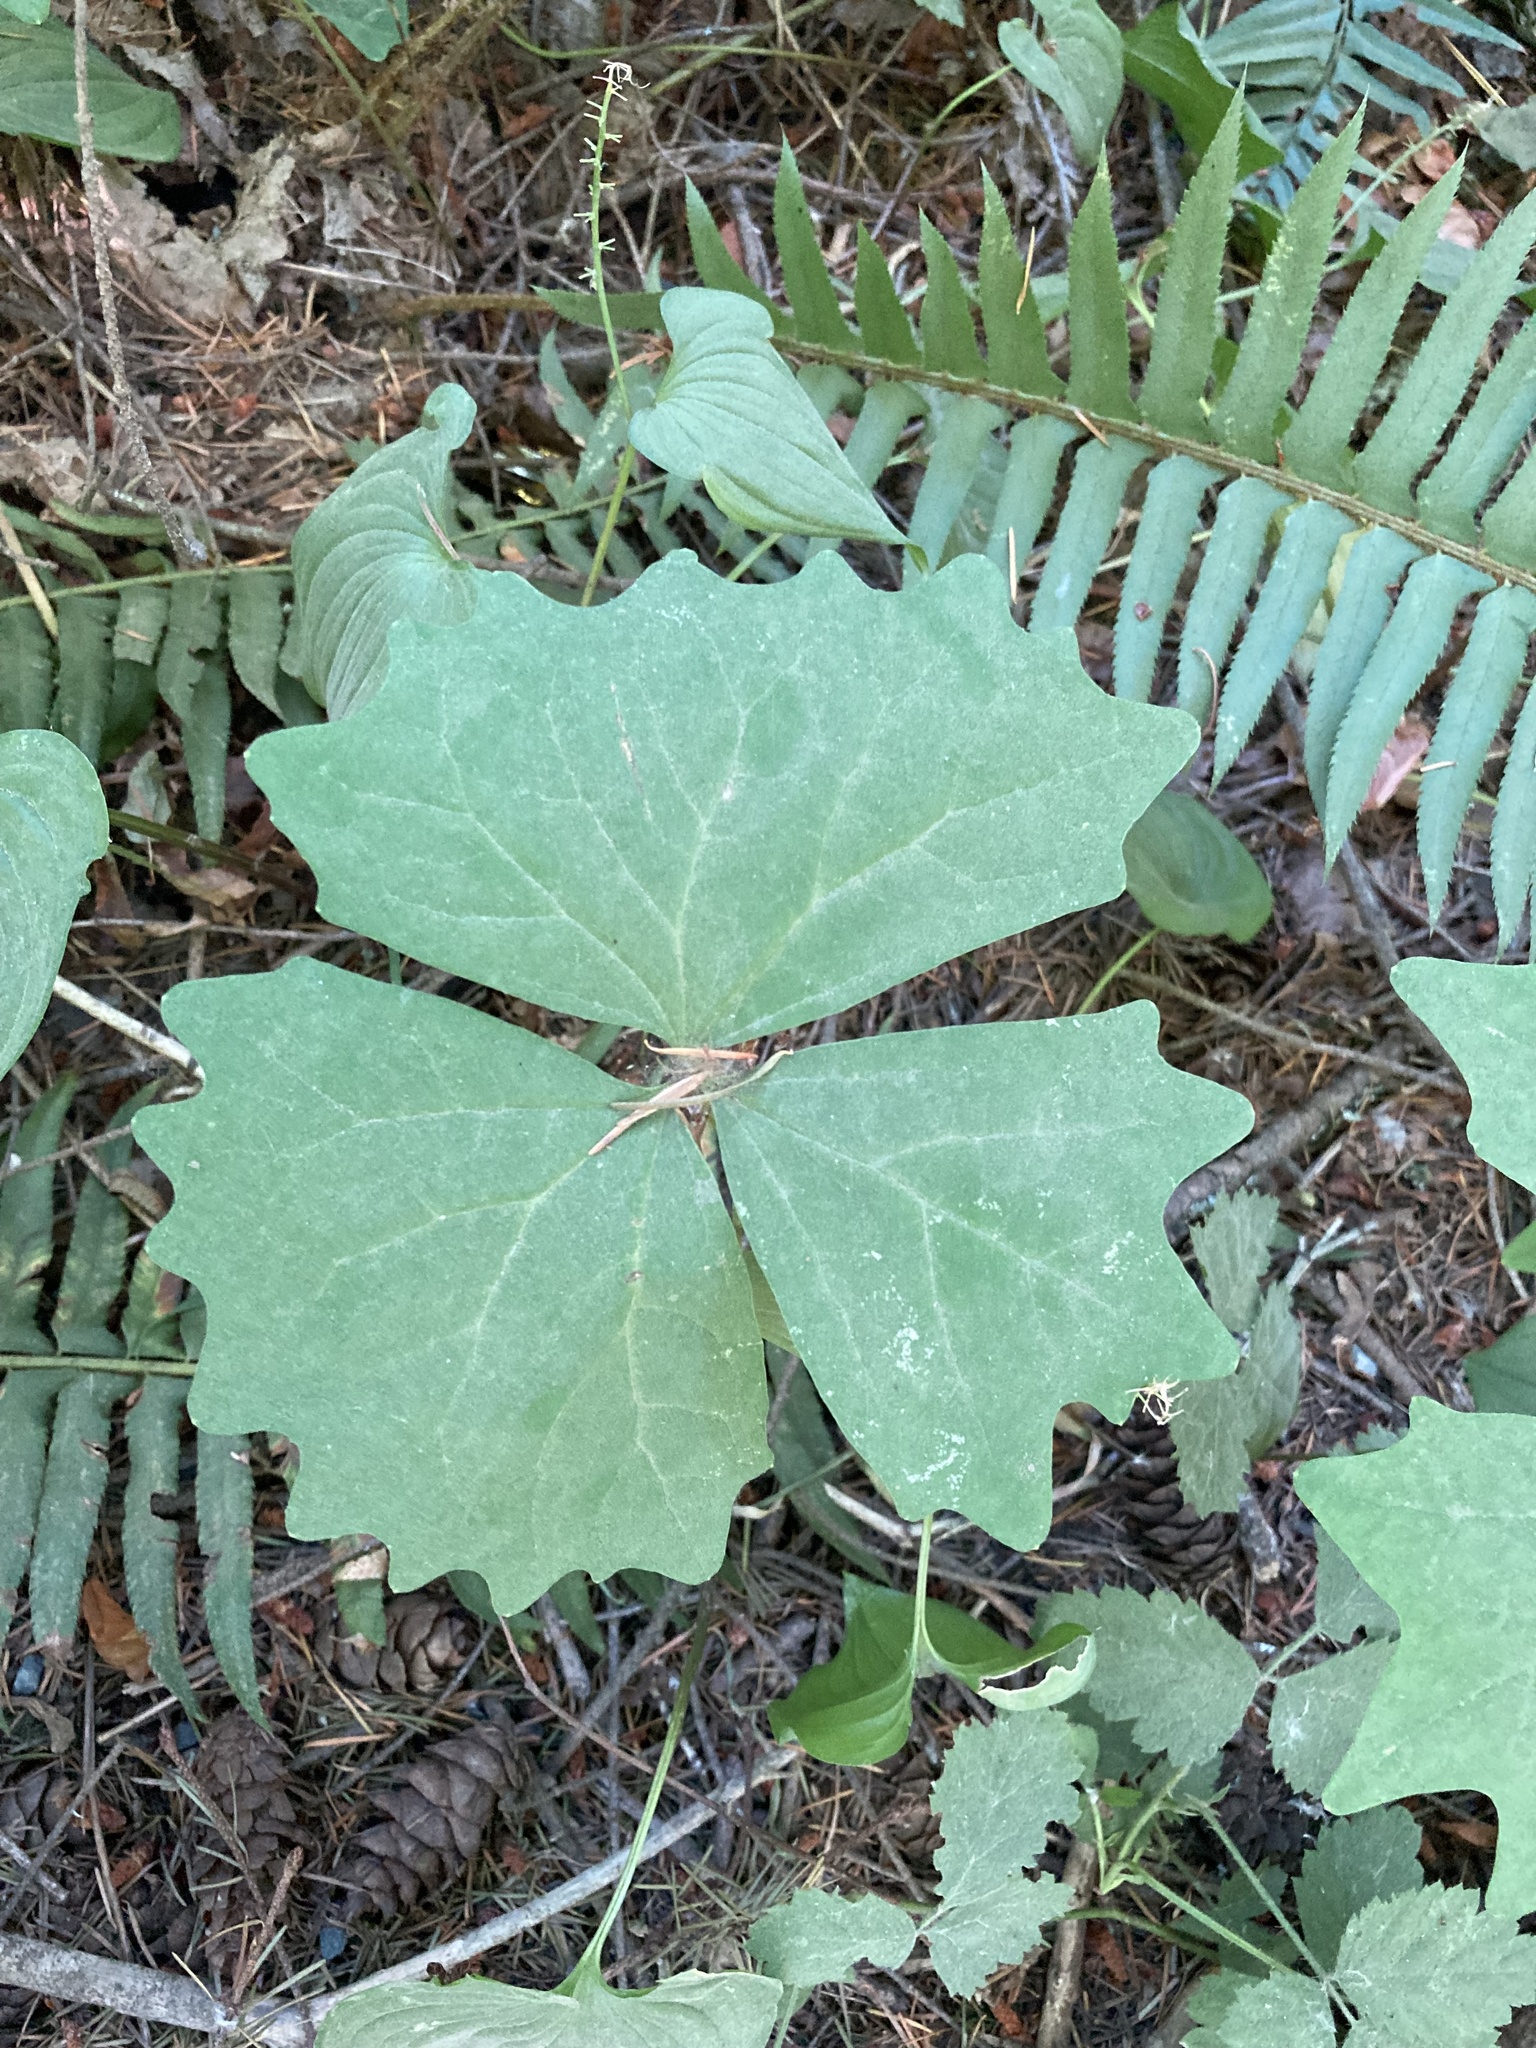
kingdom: Plantae
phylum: Tracheophyta
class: Magnoliopsida
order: Ranunculales
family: Berberidaceae
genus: Achlys
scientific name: Achlys triphylla
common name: Vanilla-leaf
